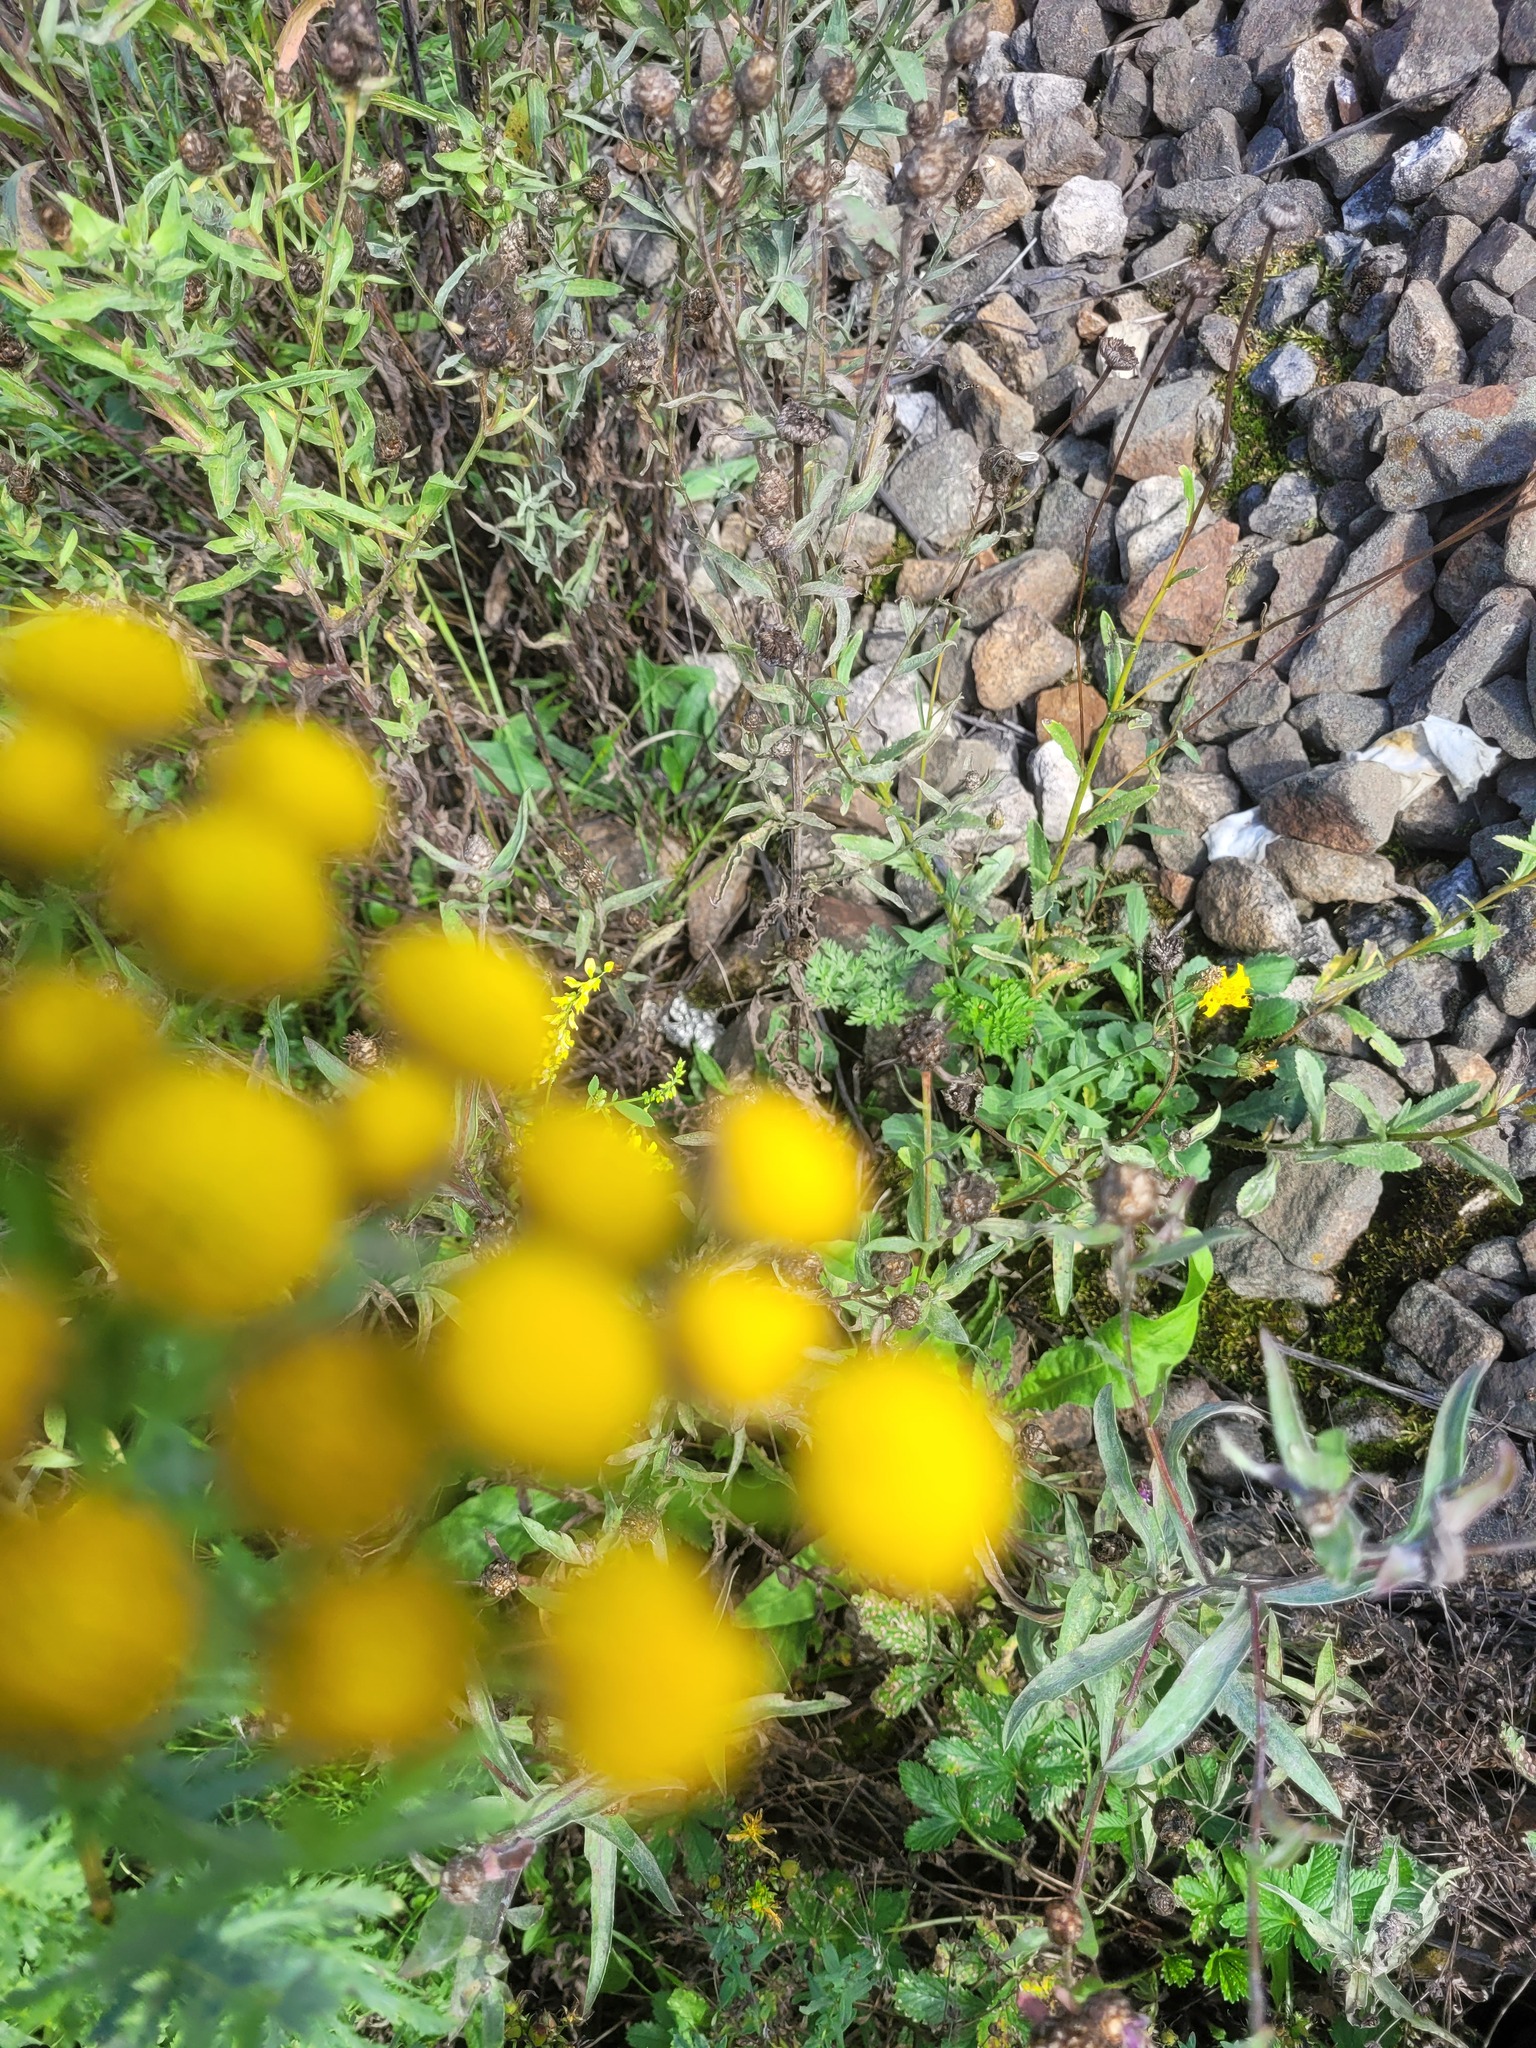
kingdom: Plantae
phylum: Tracheophyta
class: Magnoliopsida
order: Asterales
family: Asteraceae
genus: Centaurea
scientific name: Centaurea jacea
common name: Brown knapweed
